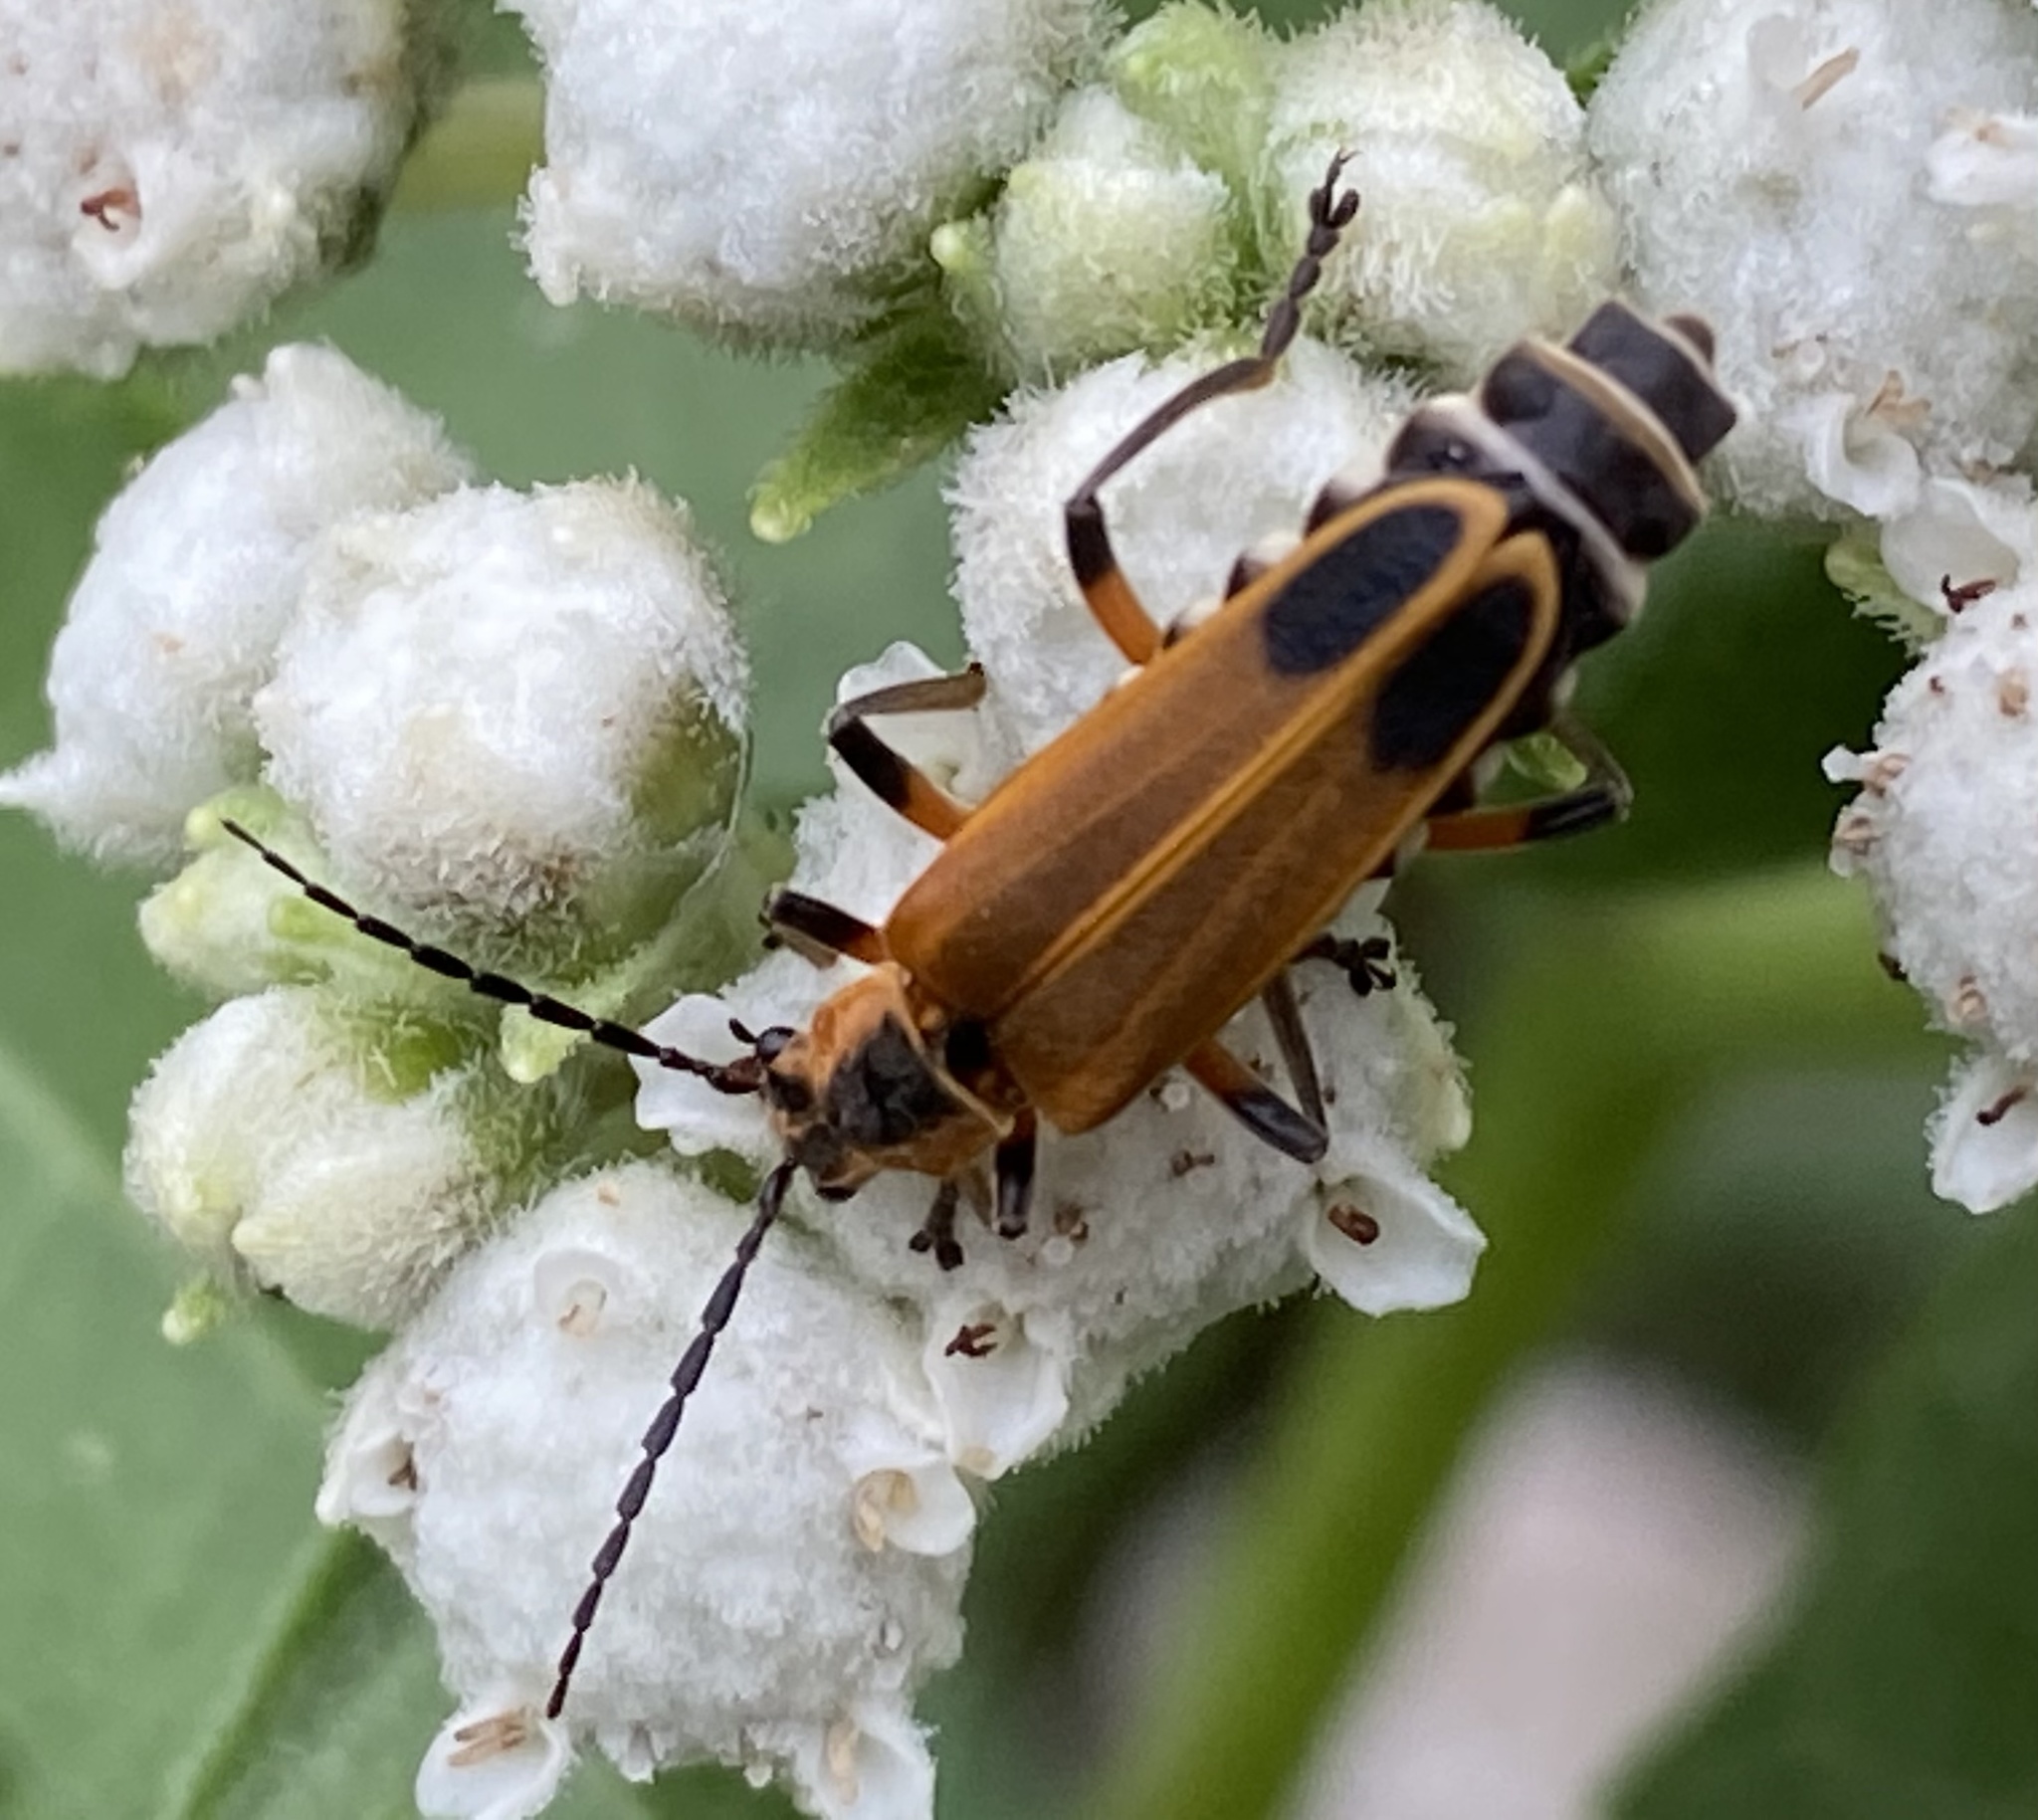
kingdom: Animalia
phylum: Arthropoda
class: Insecta
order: Coleoptera
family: Cantharidae
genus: Chauliognathus
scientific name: Chauliognathus marginatus
